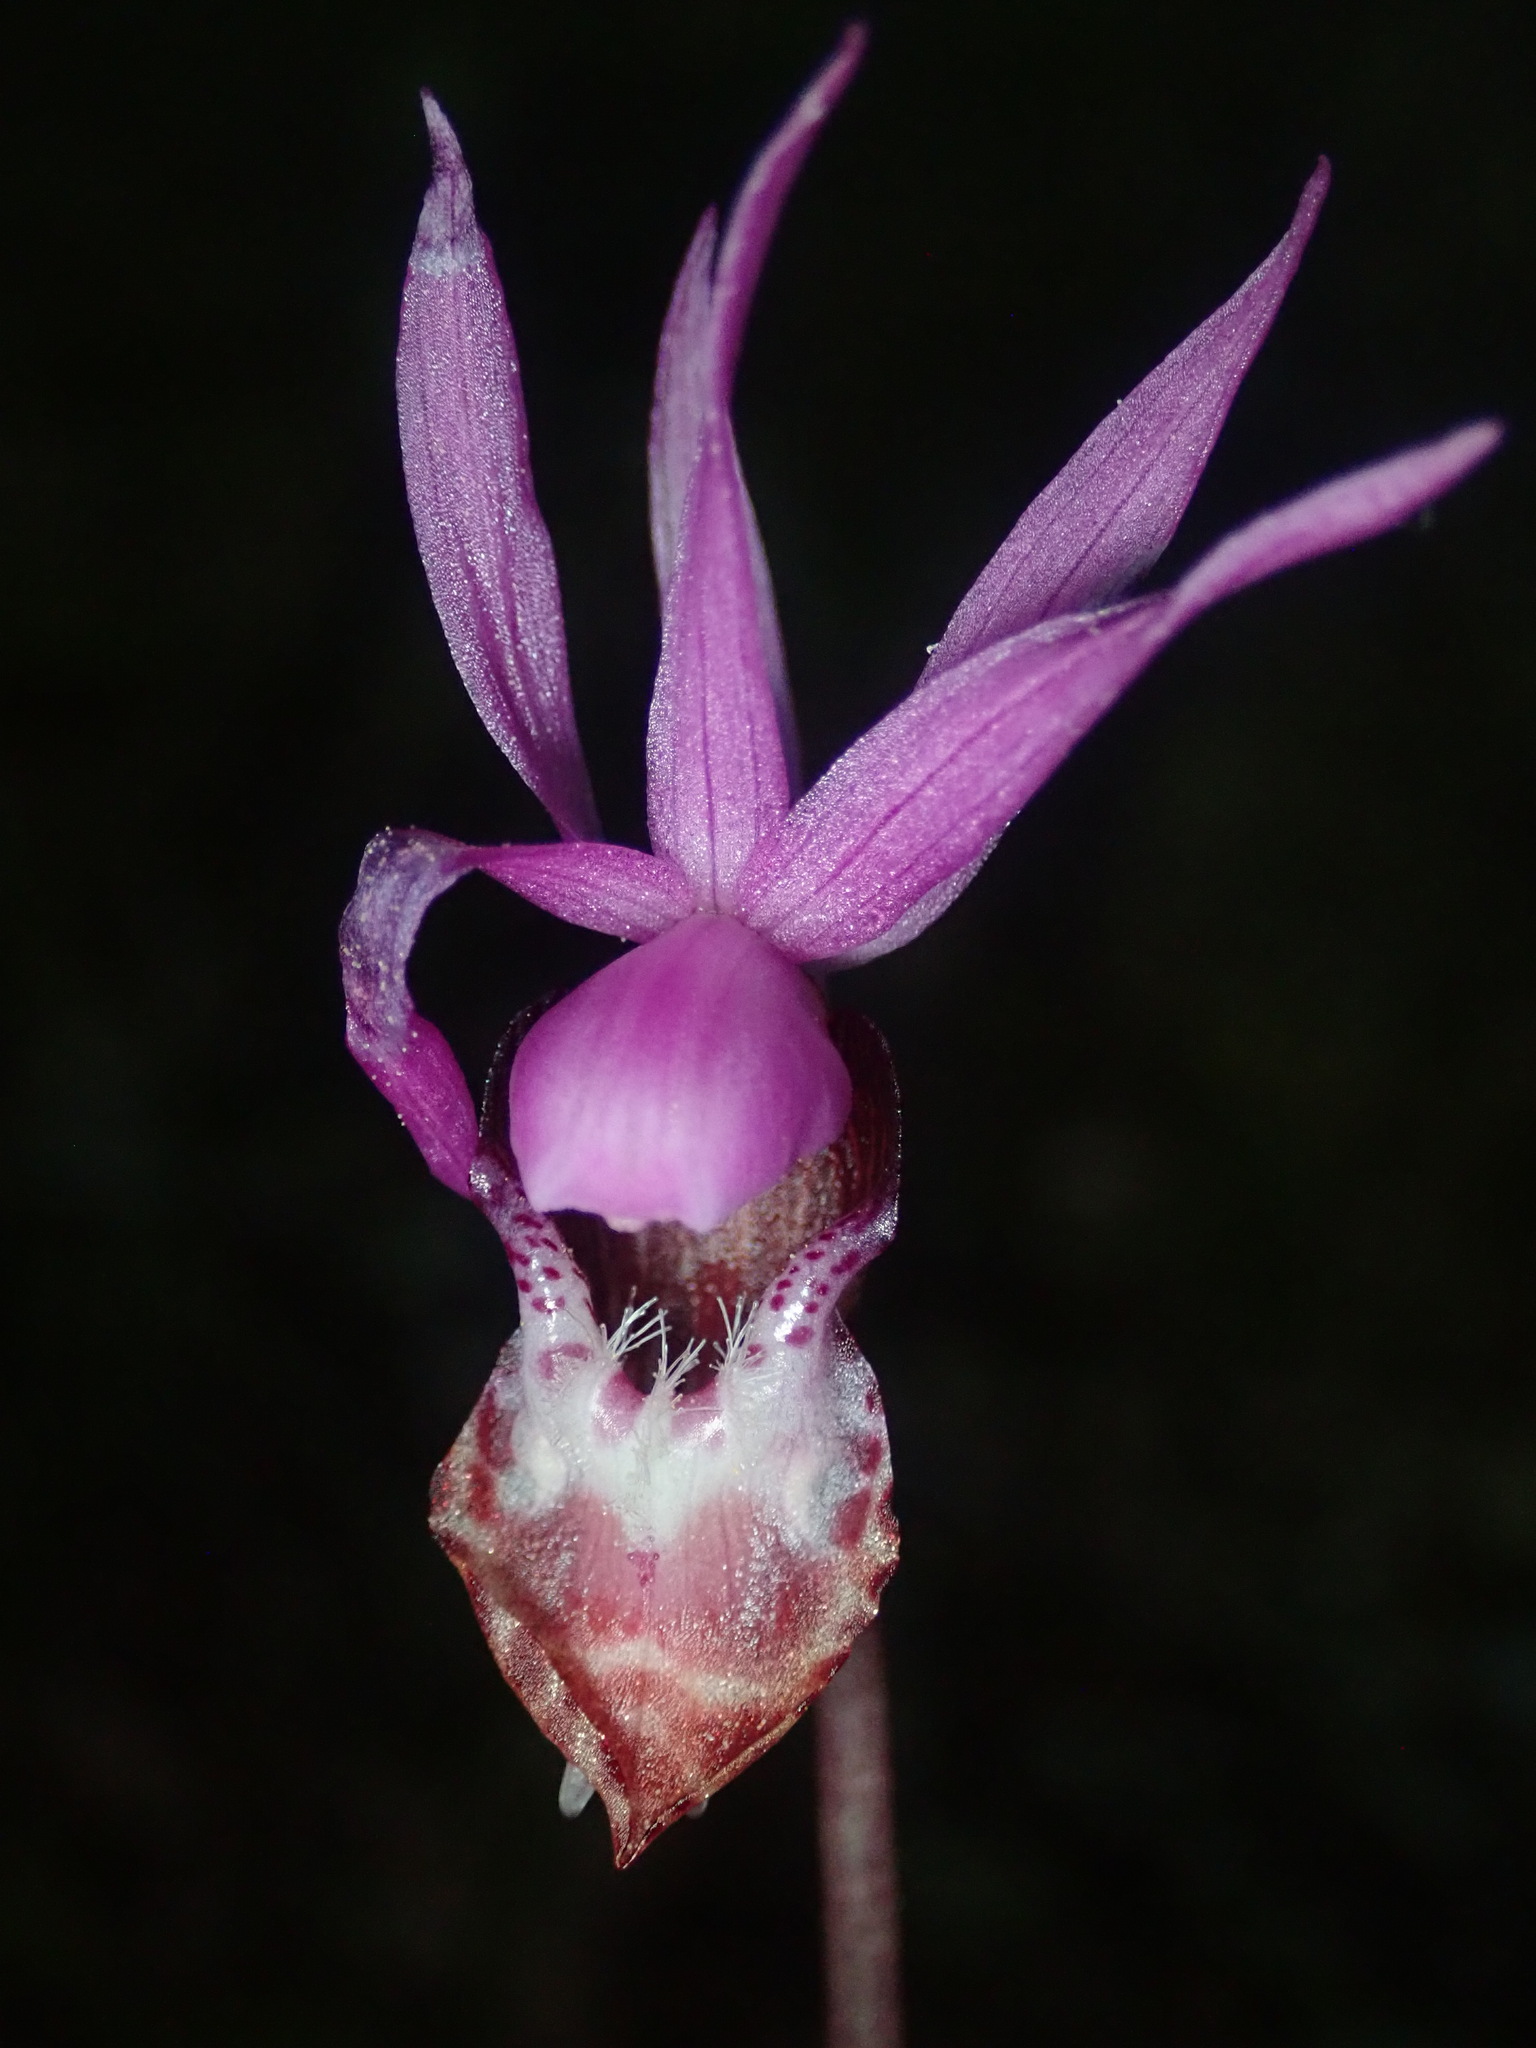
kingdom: Plantae
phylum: Tracheophyta
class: Liliopsida
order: Asparagales
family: Orchidaceae
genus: Calypso
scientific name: Calypso bulbosa
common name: Calypso
